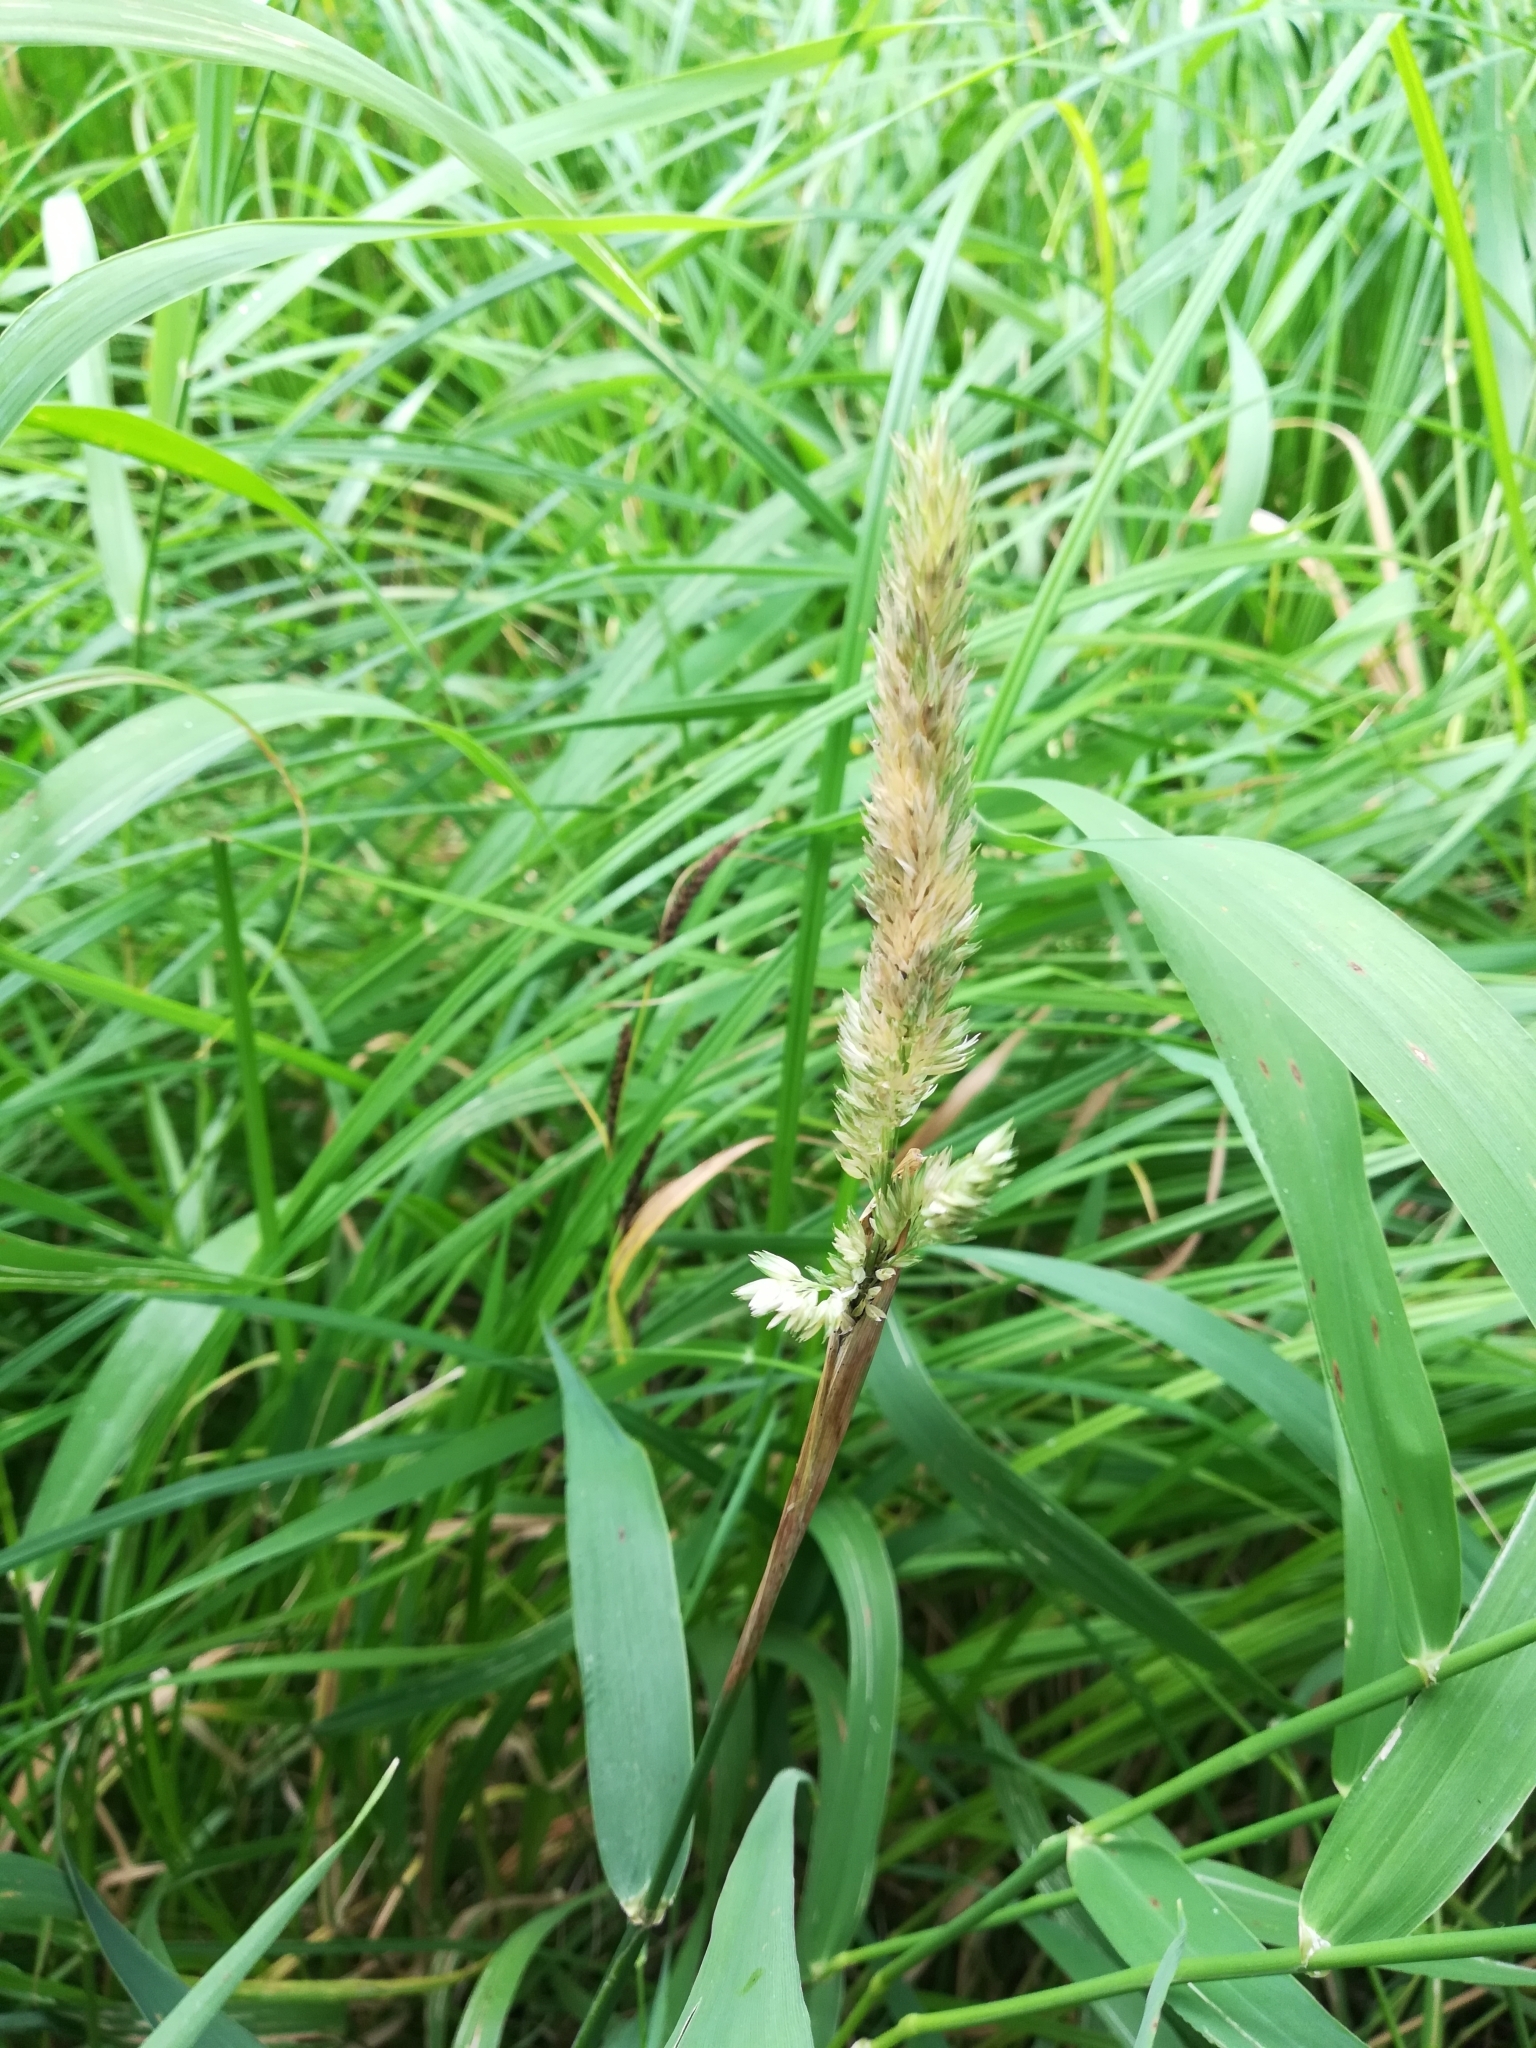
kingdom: Plantae
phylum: Tracheophyta
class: Liliopsida
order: Poales
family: Poaceae
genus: Phalaris
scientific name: Phalaris arundinacea
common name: Reed canary-grass
